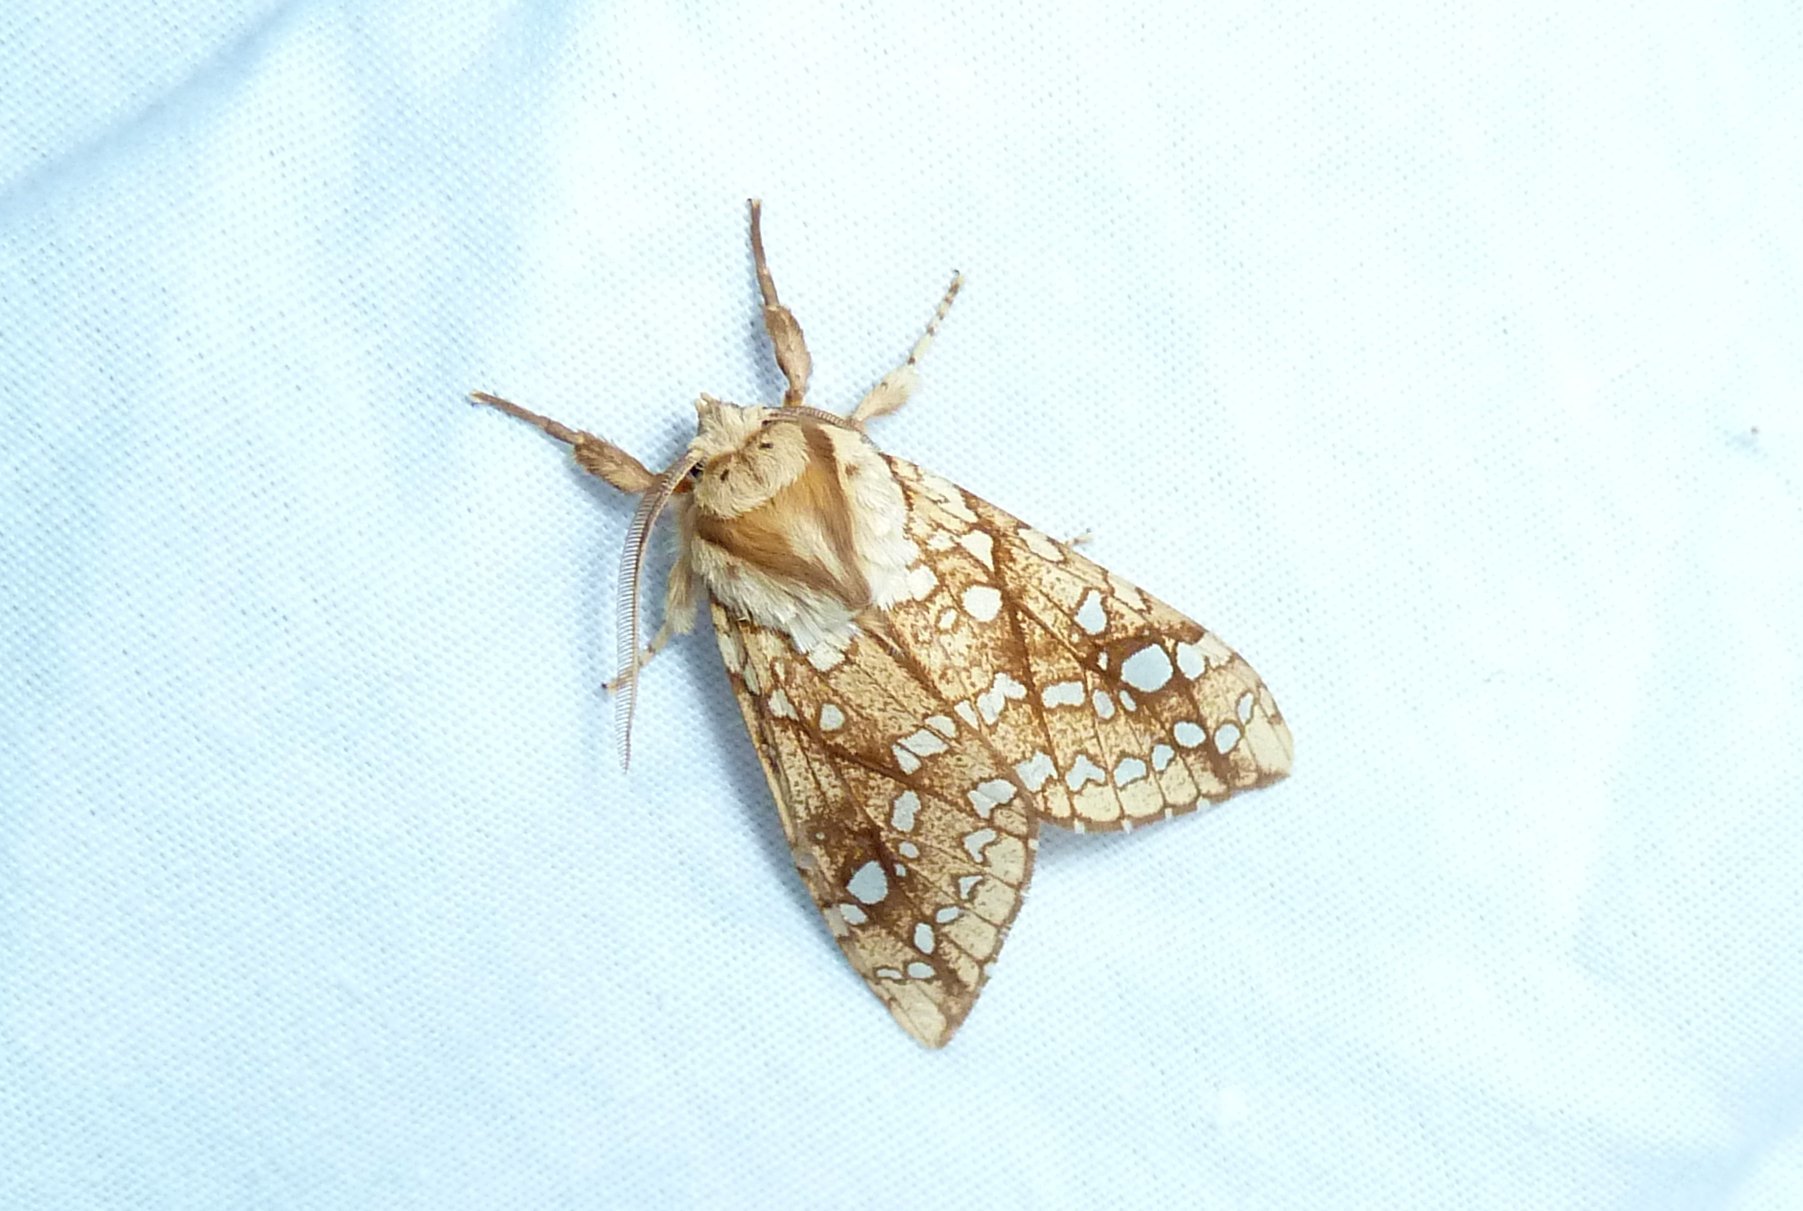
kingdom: Animalia
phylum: Arthropoda
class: Insecta
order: Lepidoptera
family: Erebidae
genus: Lophocampa
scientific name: Lophocampa caryae
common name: Hickory tussock moth
